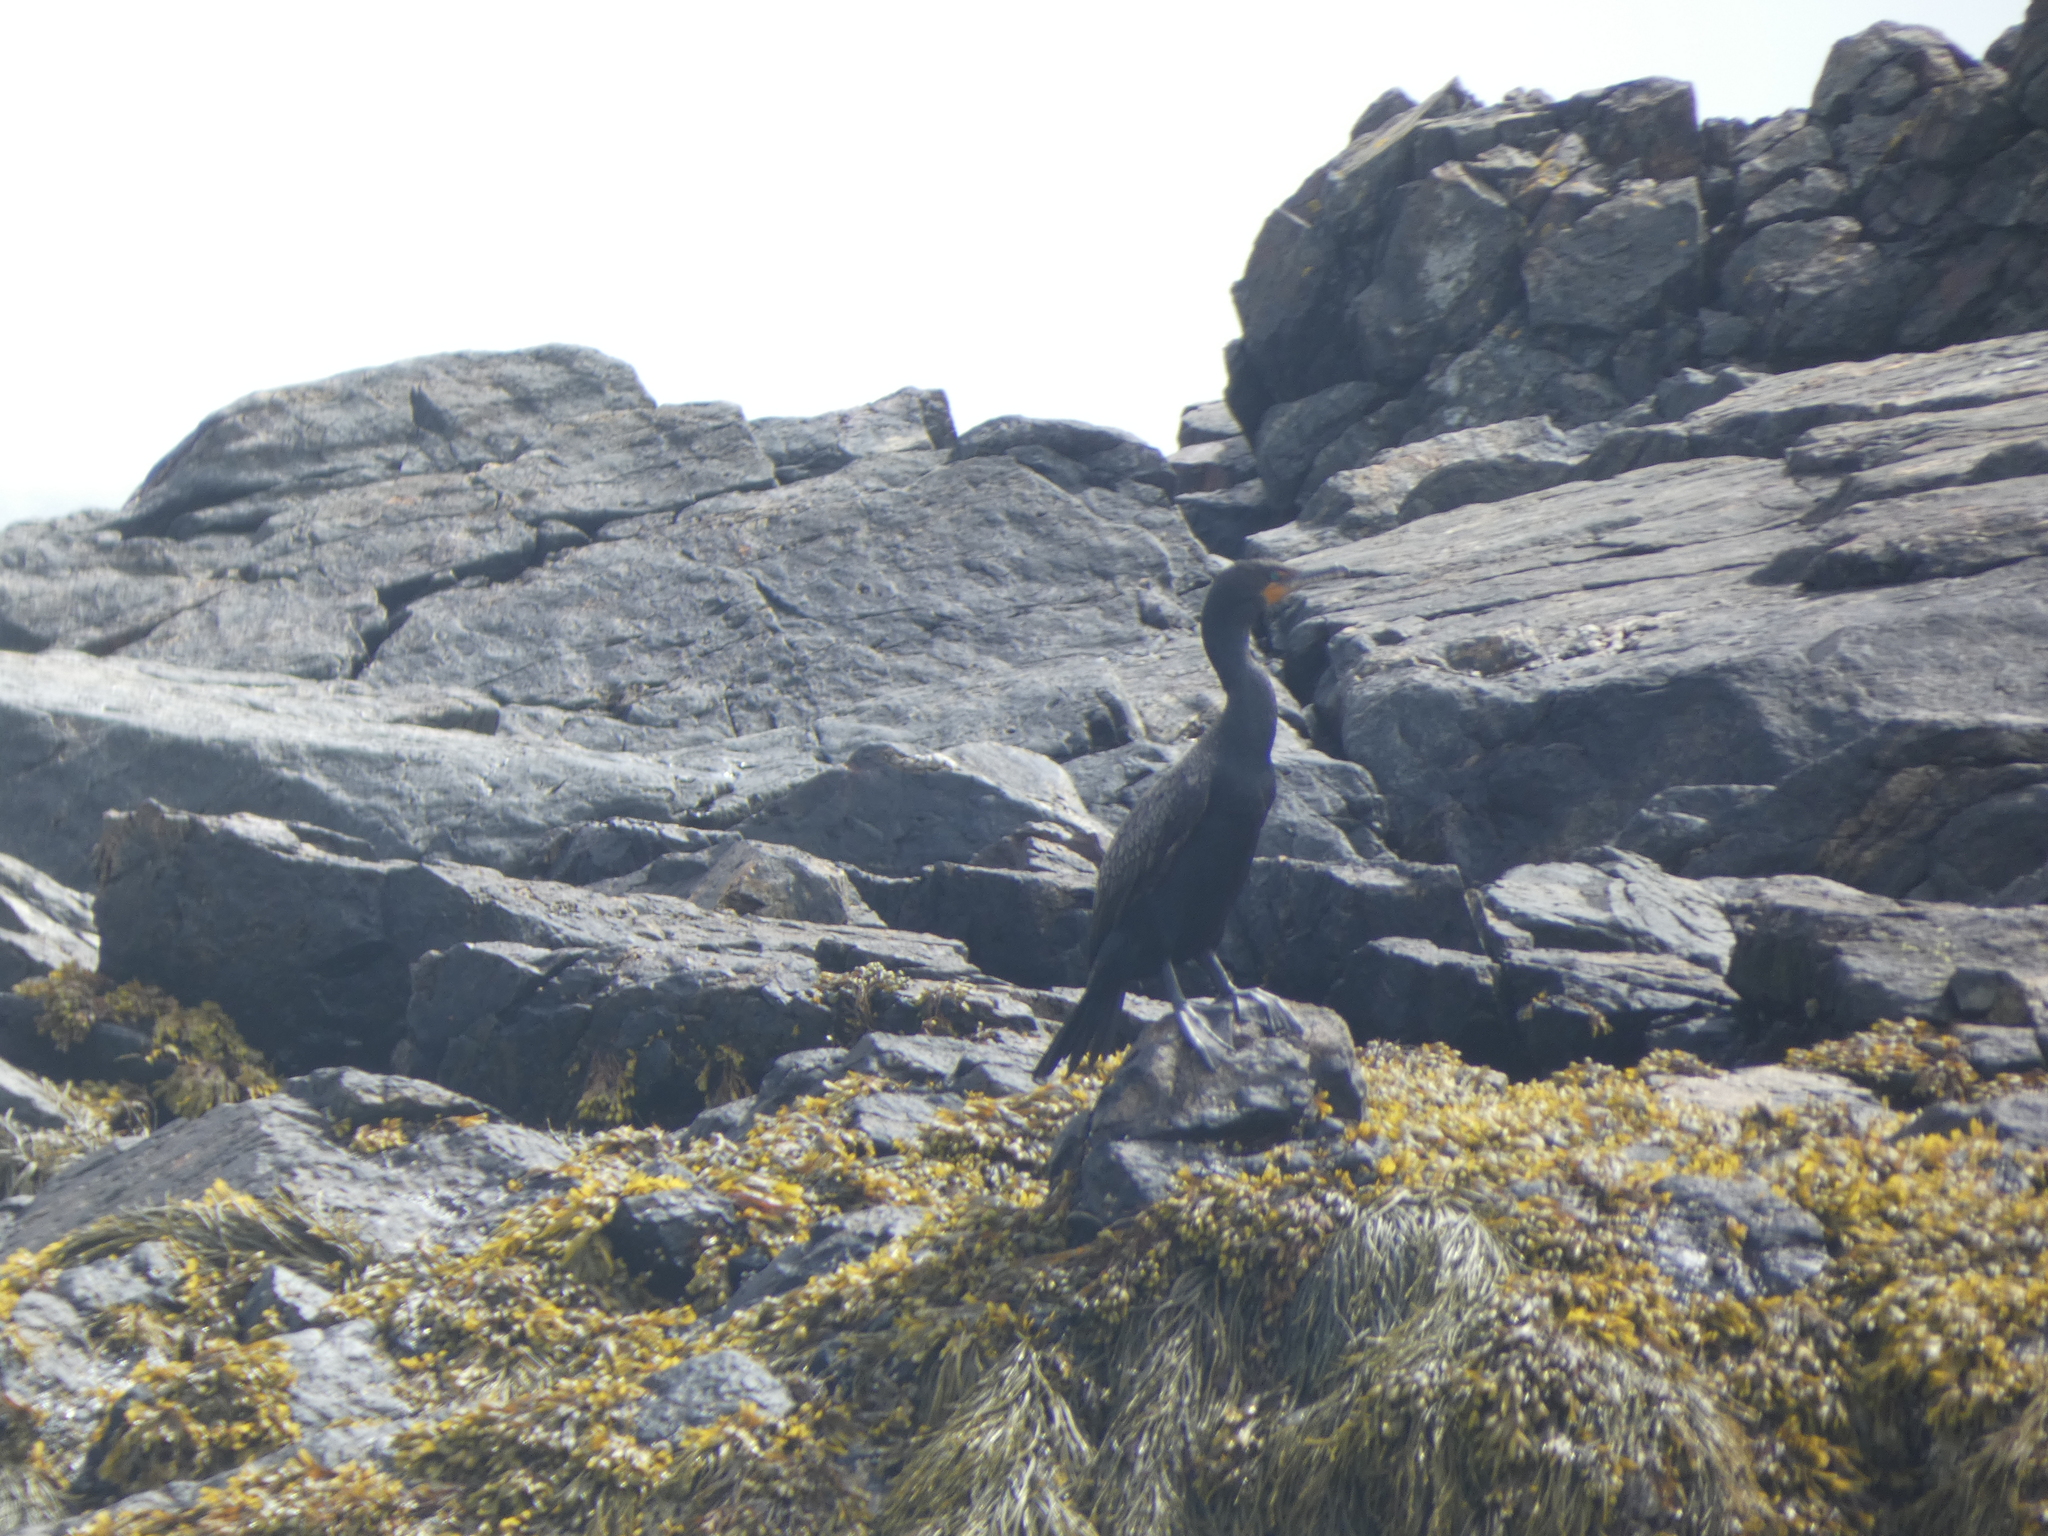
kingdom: Animalia
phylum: Chordata
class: Aves
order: Suliformes
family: Phalacrocoracidae
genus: Phalacrocorax
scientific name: Phalacrocorax auritus
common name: Double-crested cormorant
